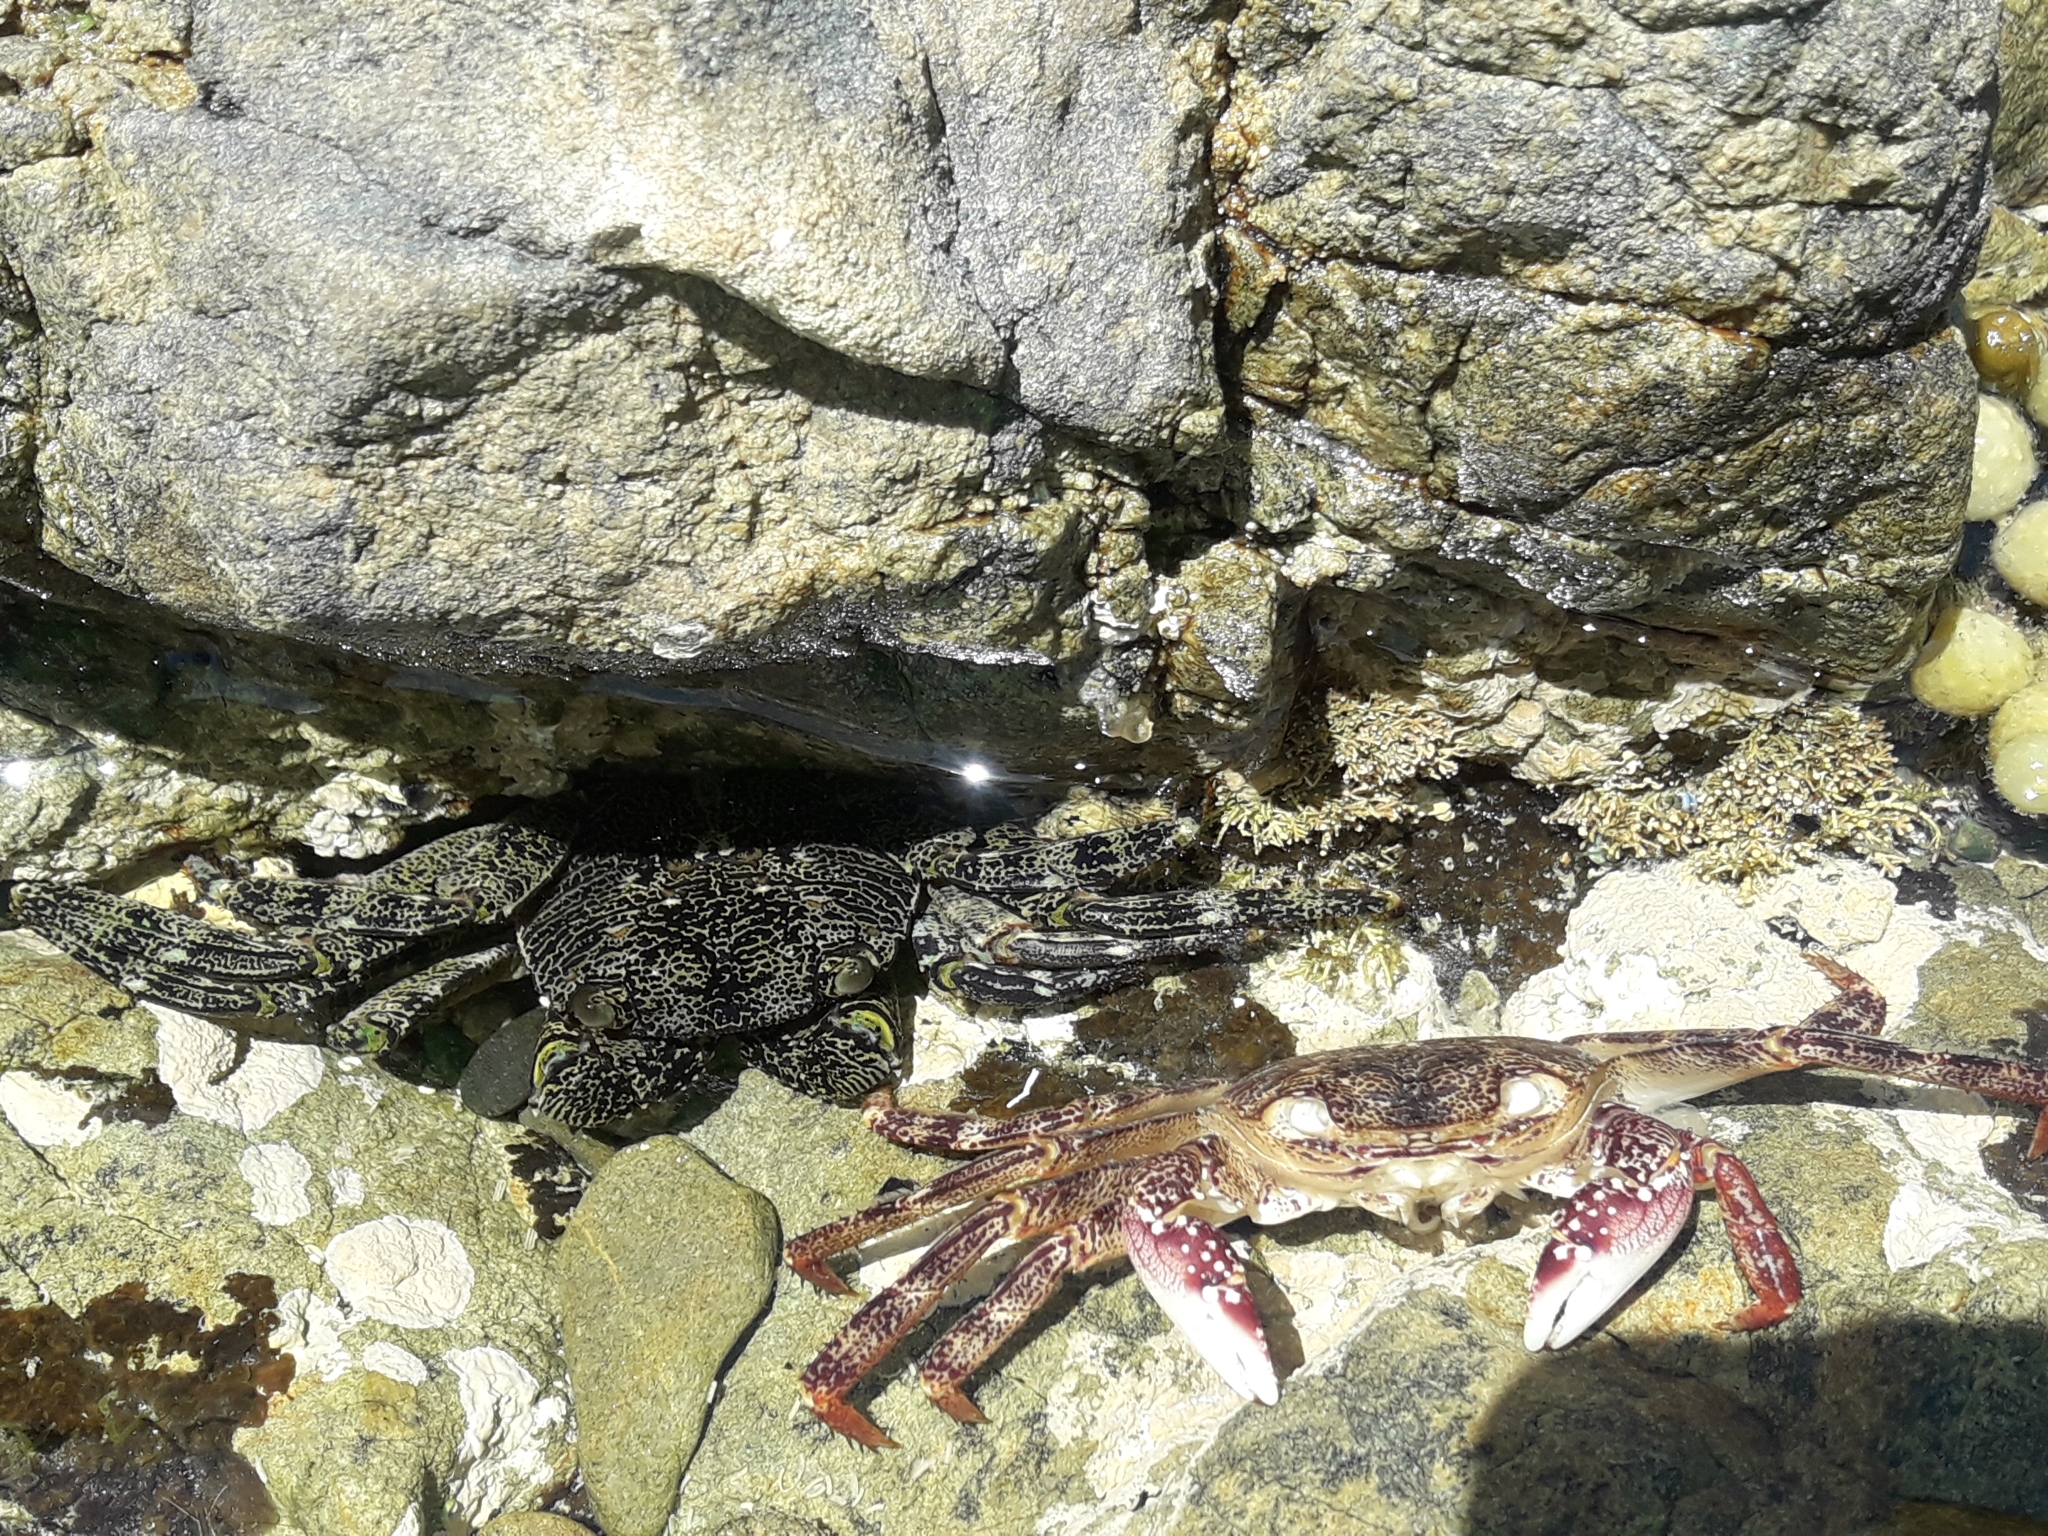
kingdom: Animalia
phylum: Arthropoda
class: Malacostraca
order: Decapoda
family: Grapsidae
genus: Leptograpsus
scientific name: Leptograpsus variegatus
